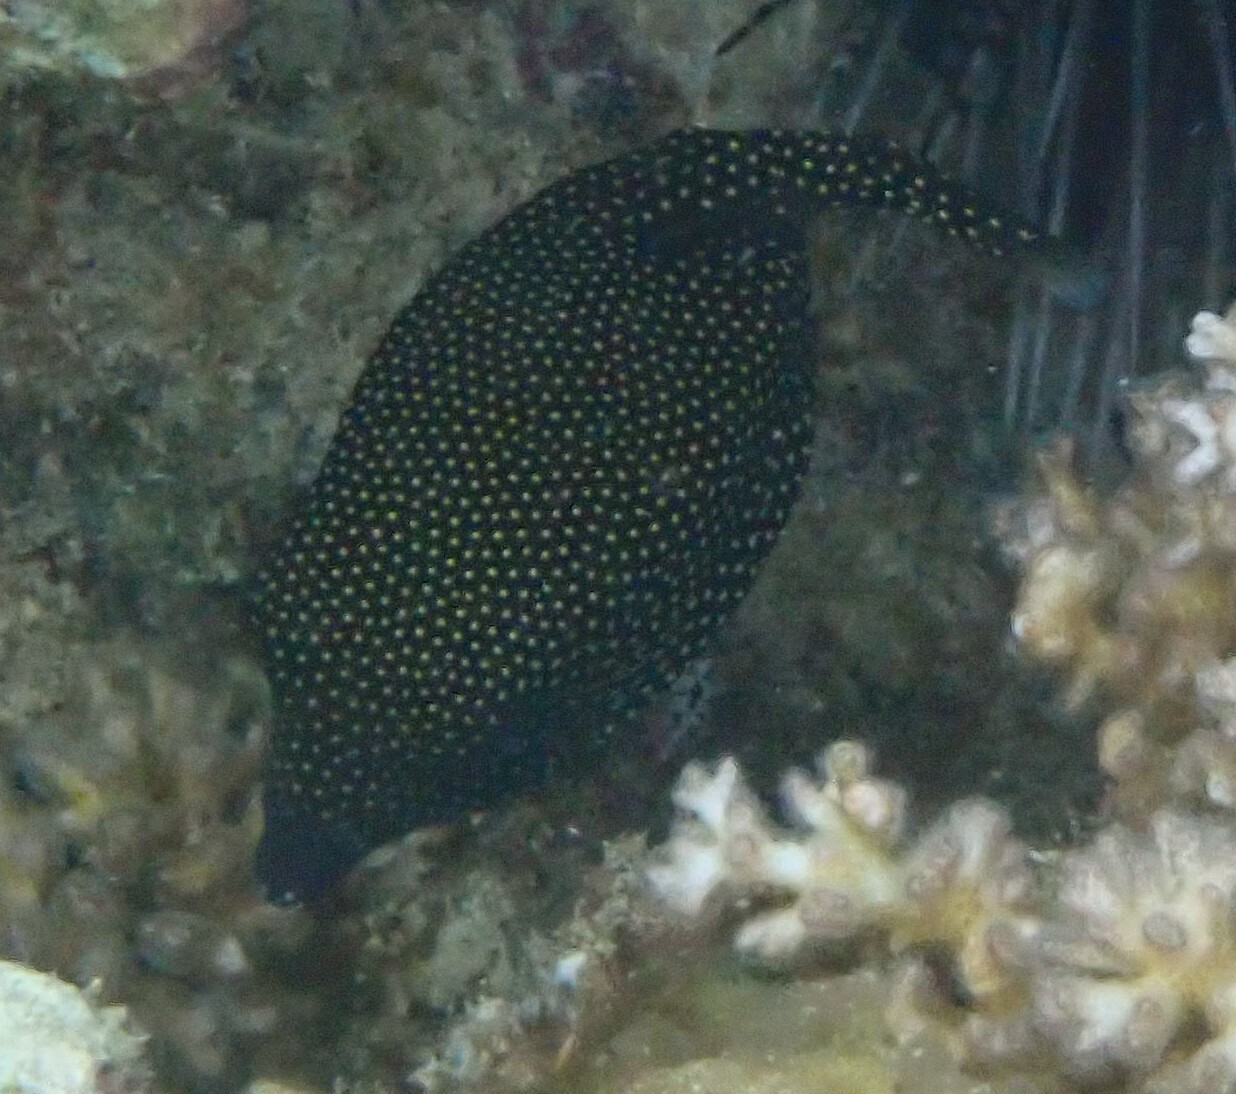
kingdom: Animalia
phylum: Chordata
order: Tetraodontiformes
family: Ostraciidae
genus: Ostracion
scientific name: Ostracion meleagris
